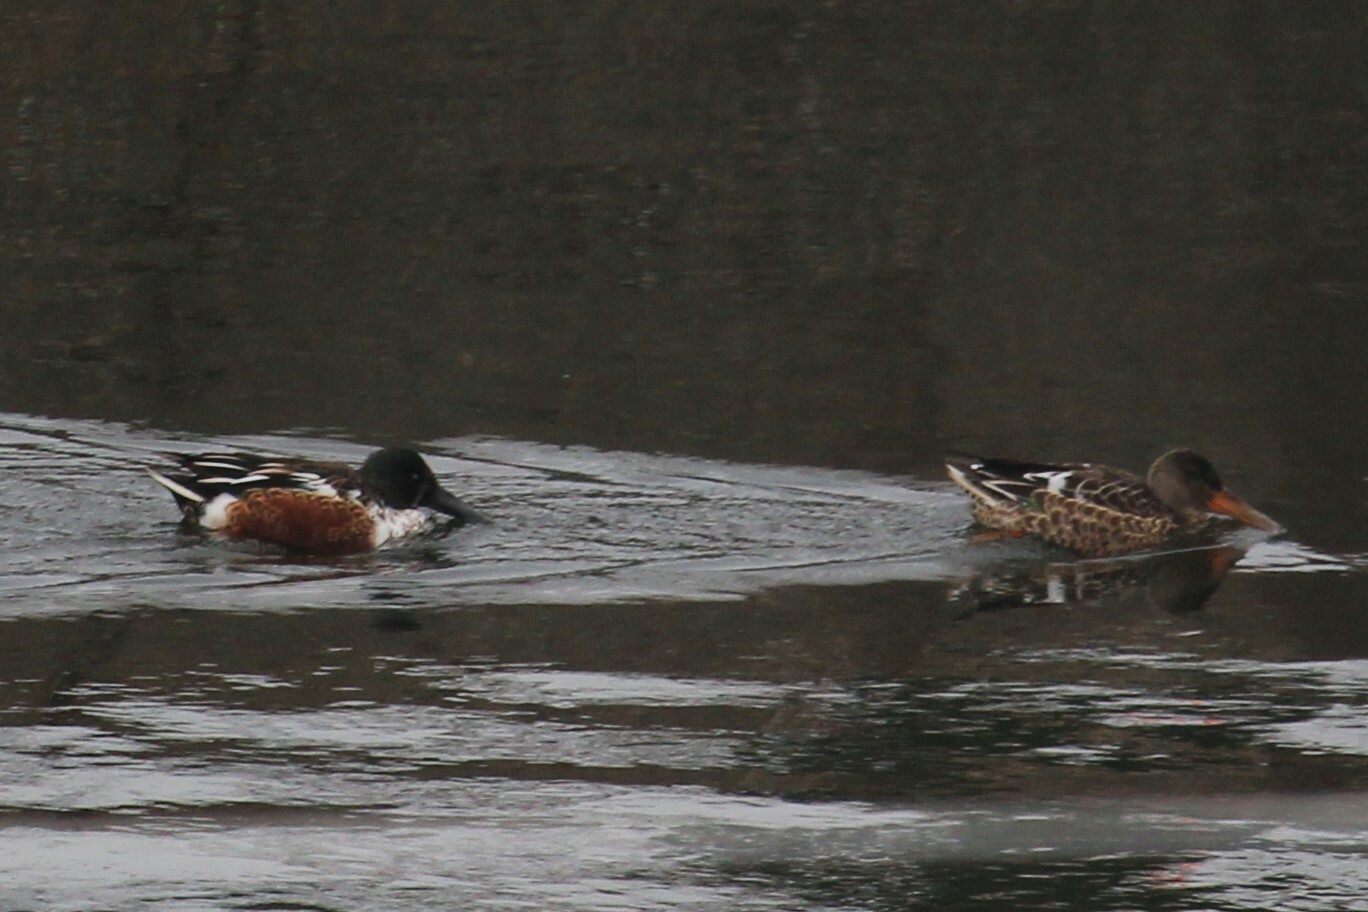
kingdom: Animalia
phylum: Chordata
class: Aves
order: Anseriformes
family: Anatidae
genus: Spatula
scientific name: Spatula clypeata
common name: Northern shoveler
